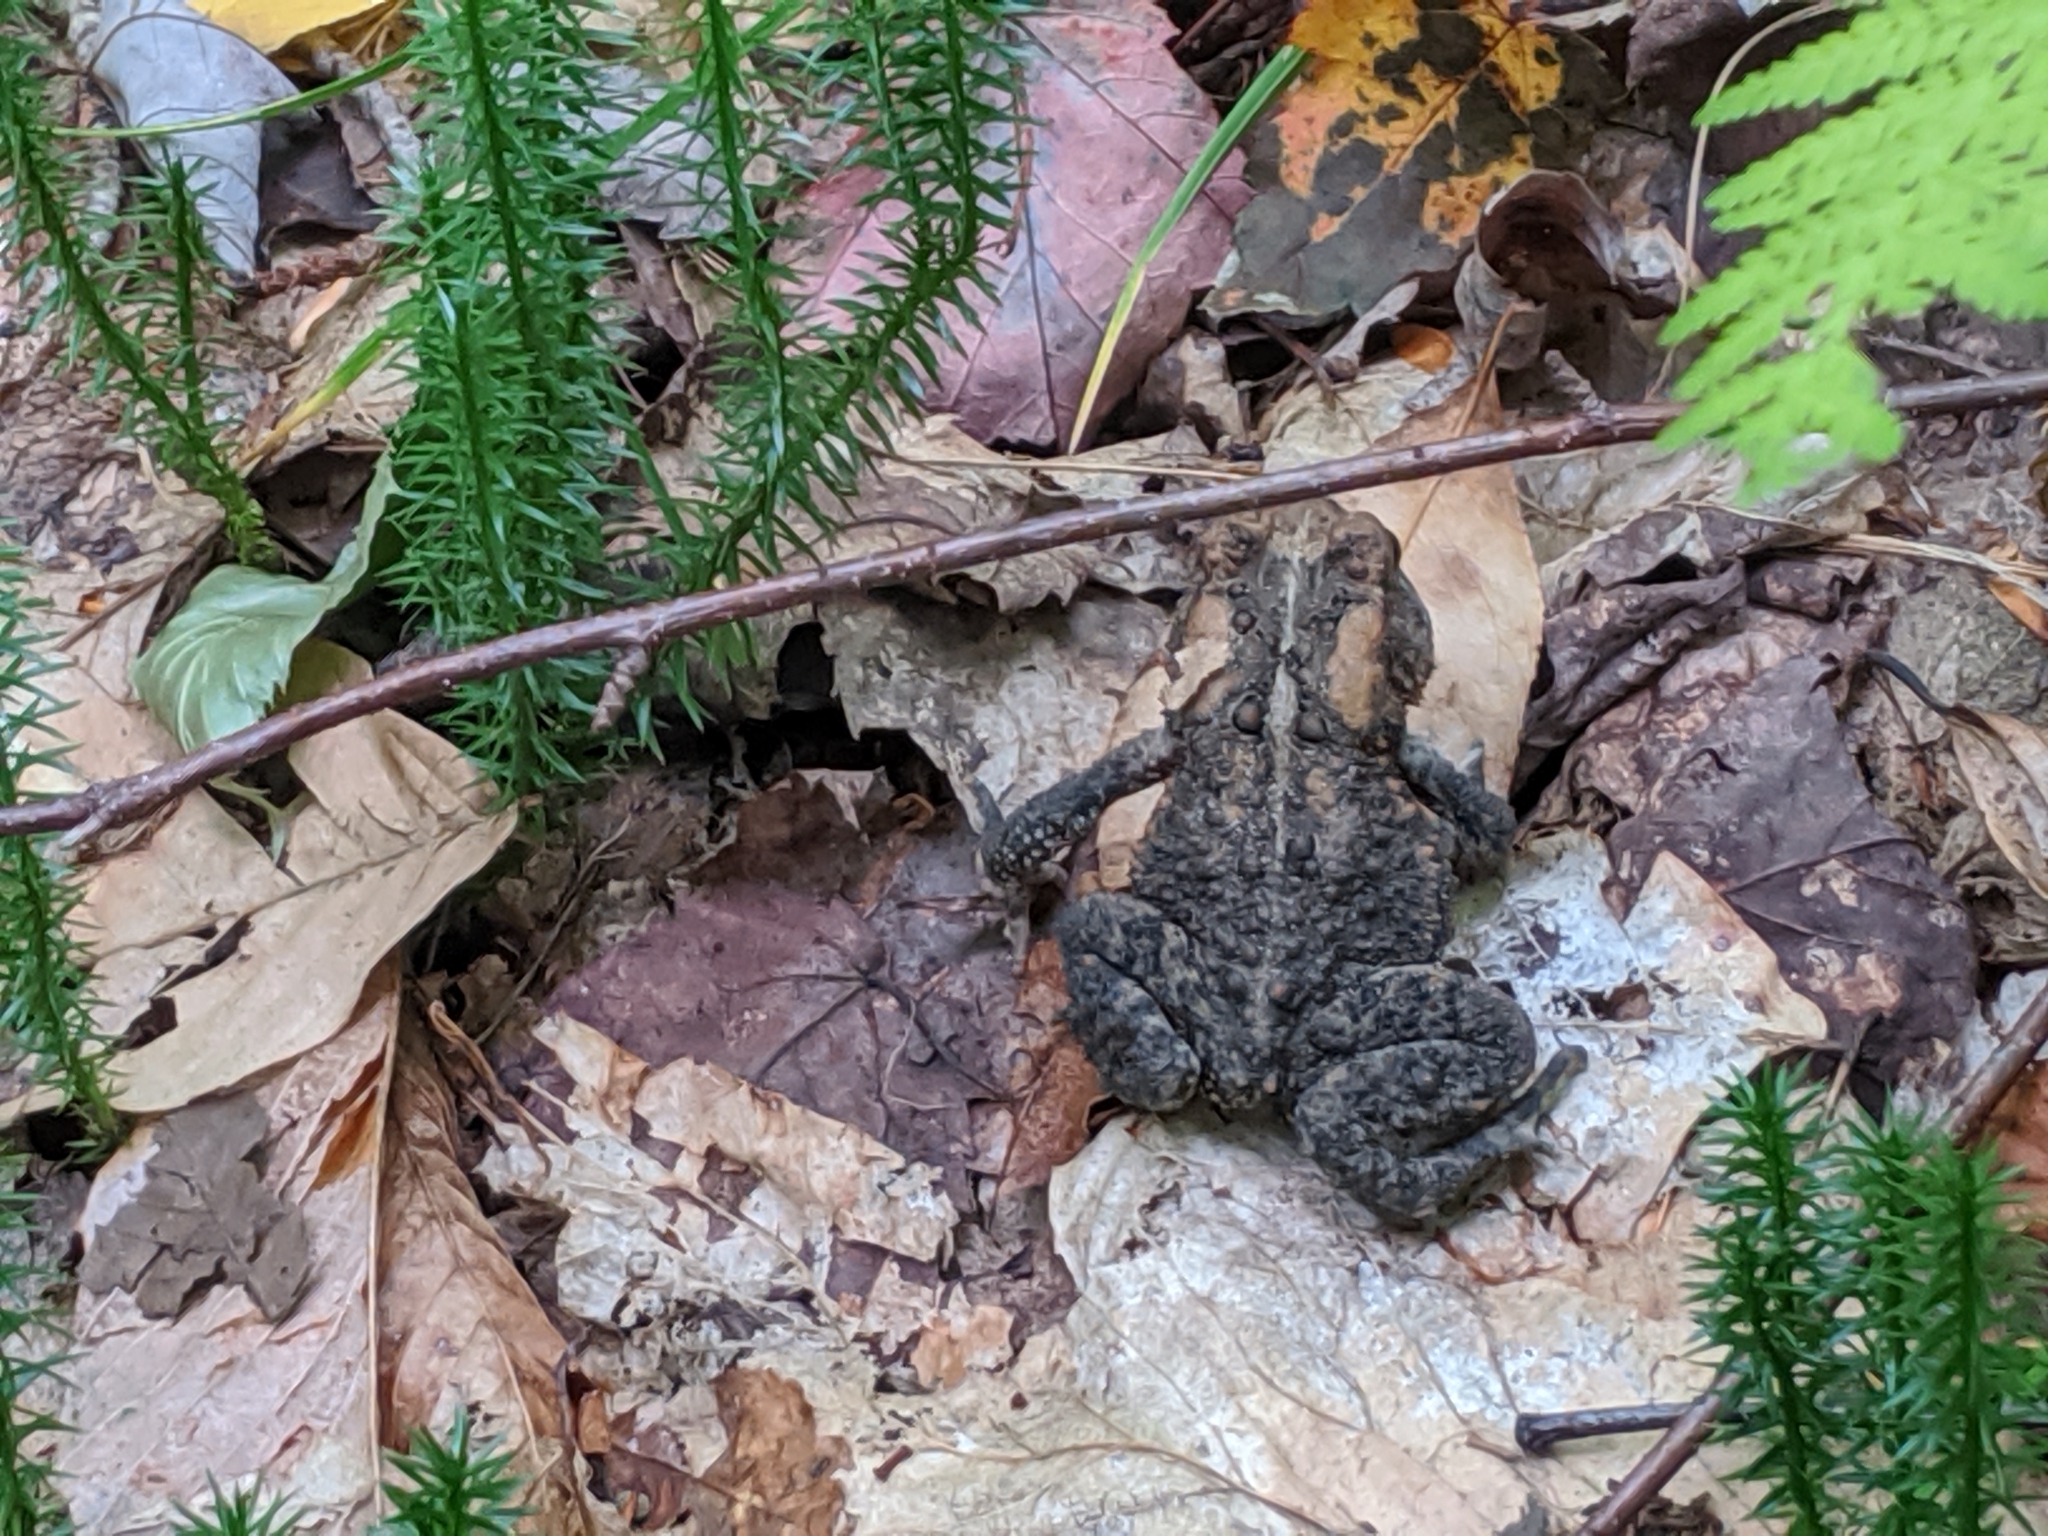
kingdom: Animalia
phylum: Chordata
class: Amphibia
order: Anura
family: Bufonidae
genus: Anaxyrus
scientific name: Anaxyrus americanus
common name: American toad
